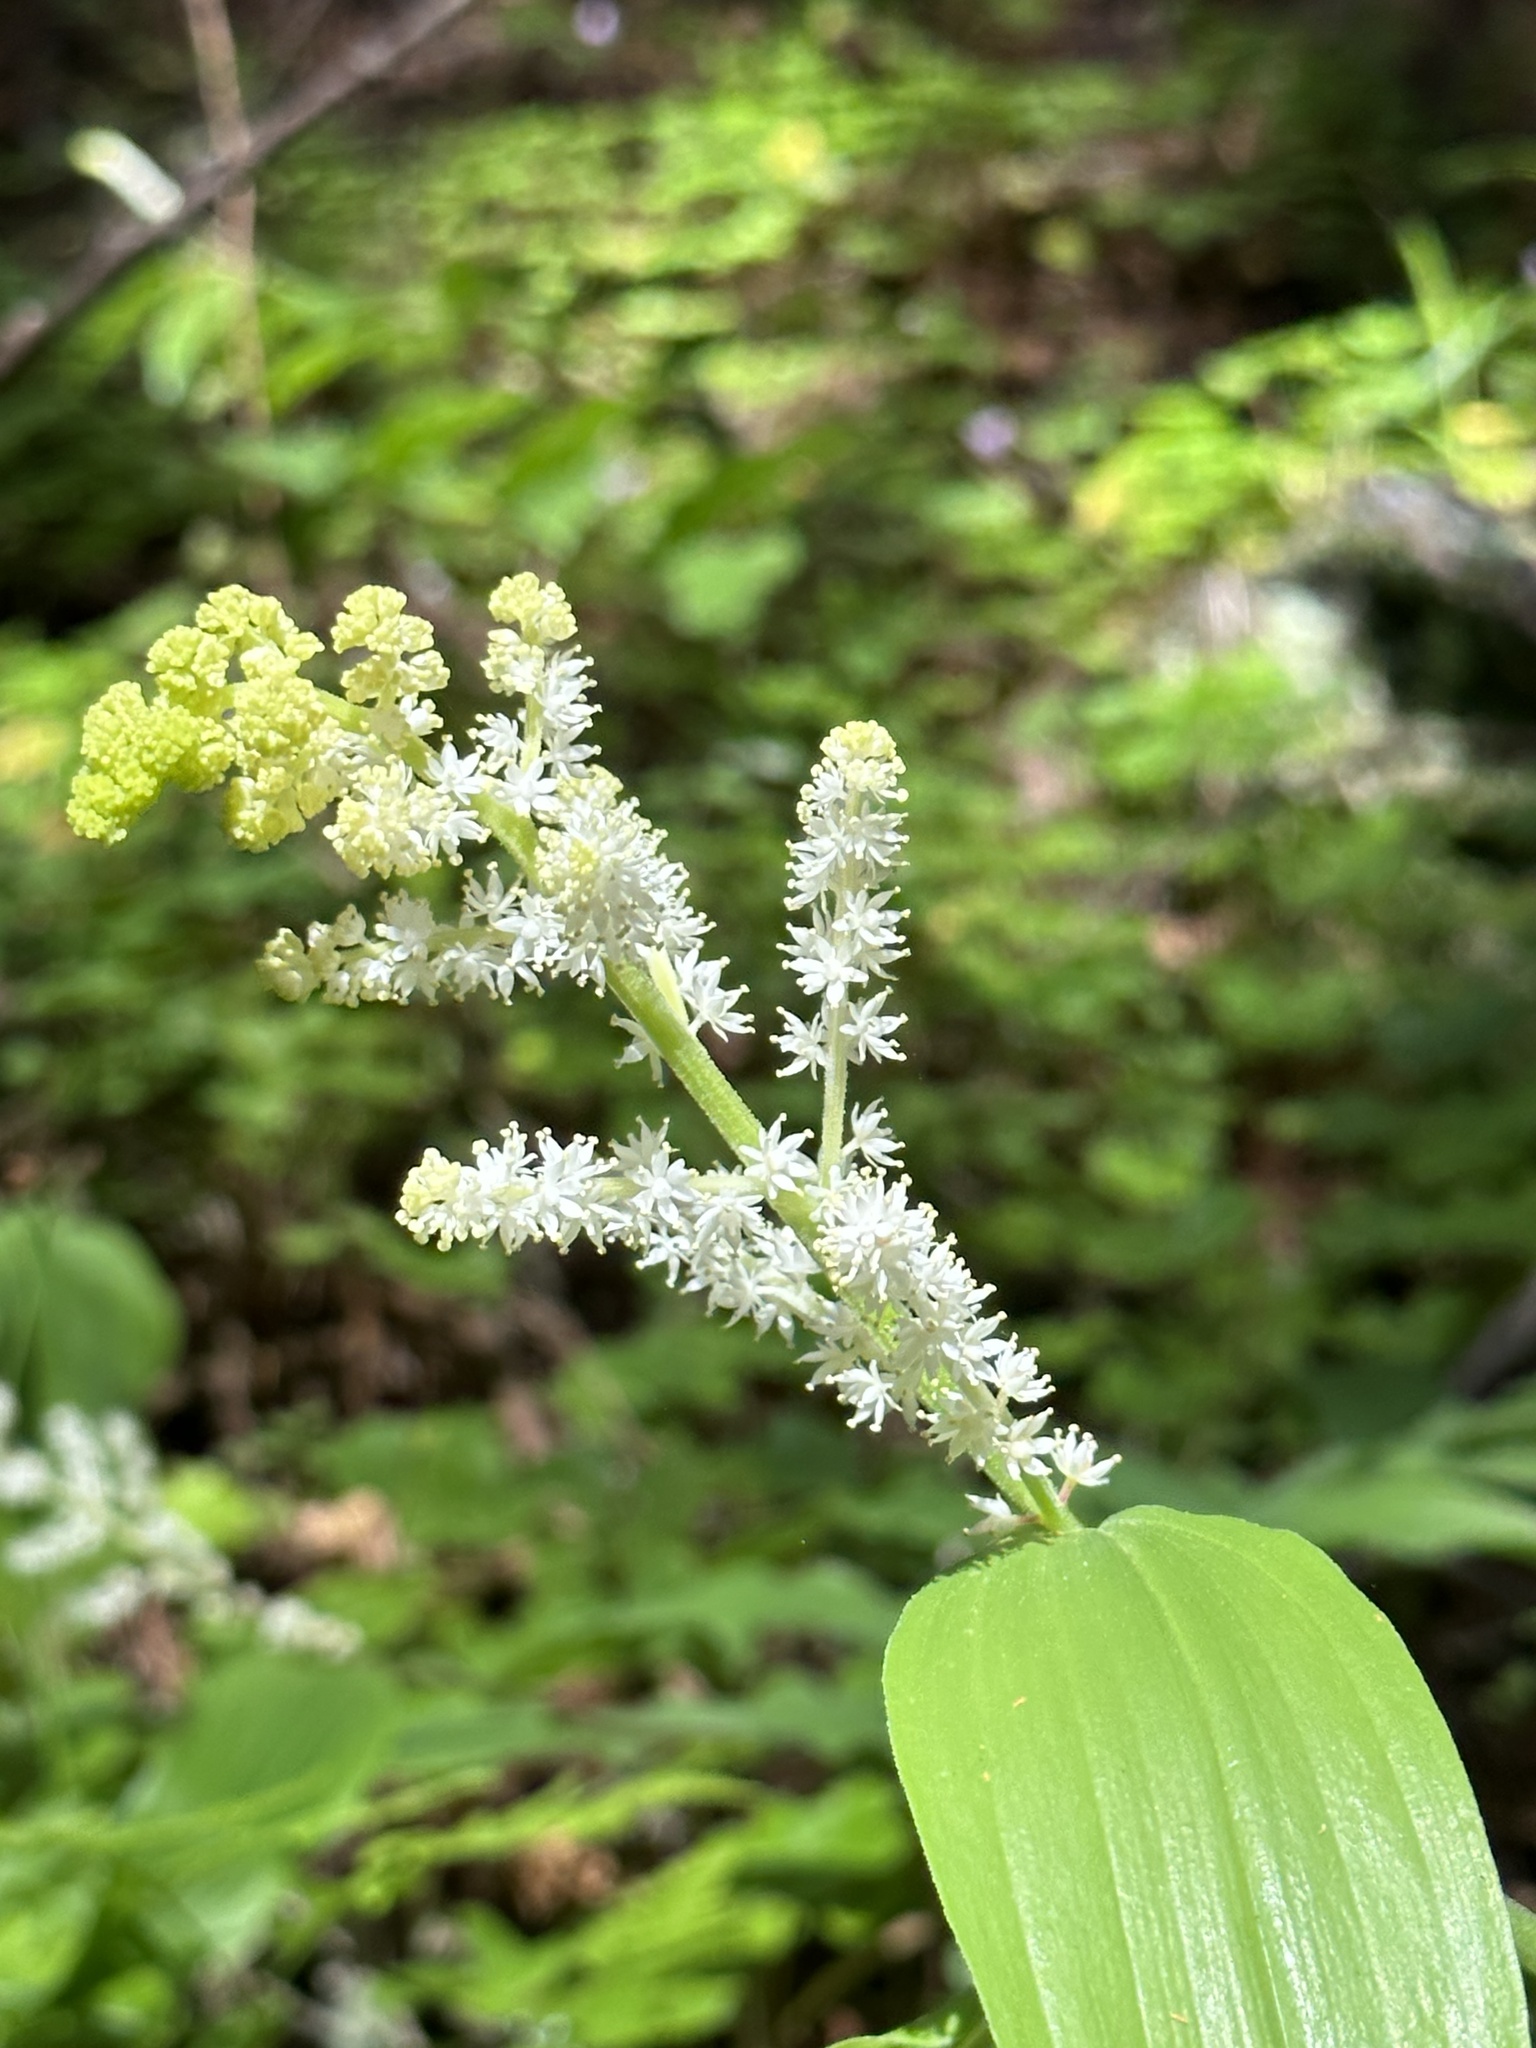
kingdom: Plantae
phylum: Tracheophyta
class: Liliopsida
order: Asparagales
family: Asparagaceae
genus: Maianthemum
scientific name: Maianthemum racemosum
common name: False spikenard
